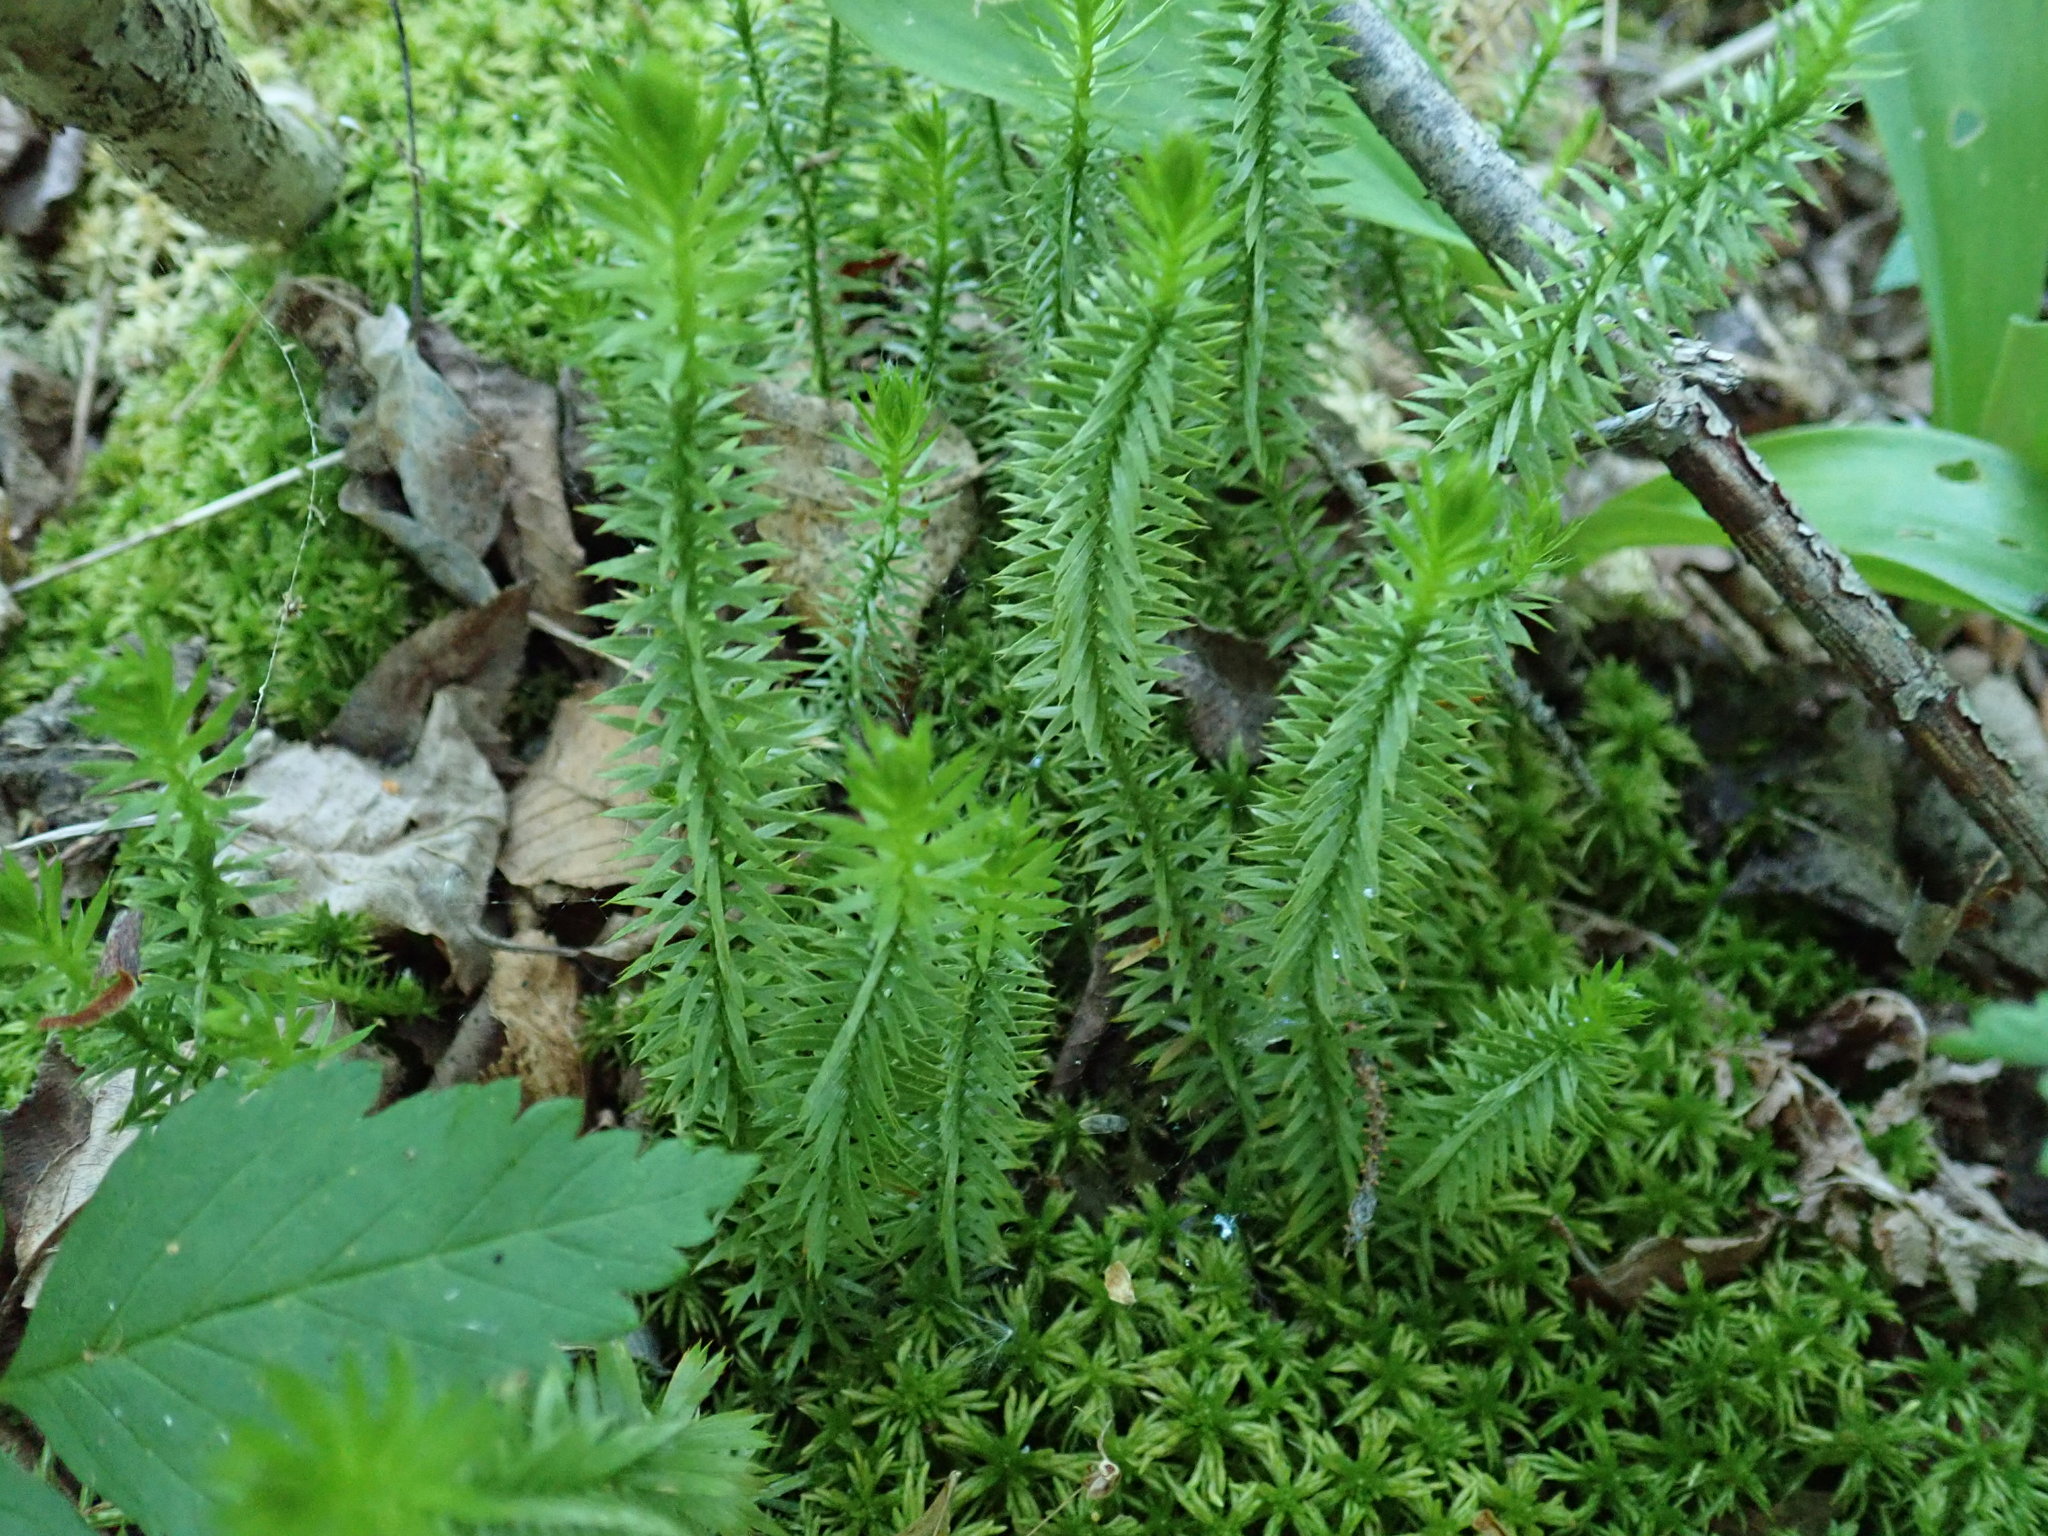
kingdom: Plantae
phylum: Tracheophyta
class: Lycopodiopsida
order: Lycopodiales
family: Lycopodiaceae
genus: Spinulum
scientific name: Spinulum annotinum
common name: Interrupted club-moss
